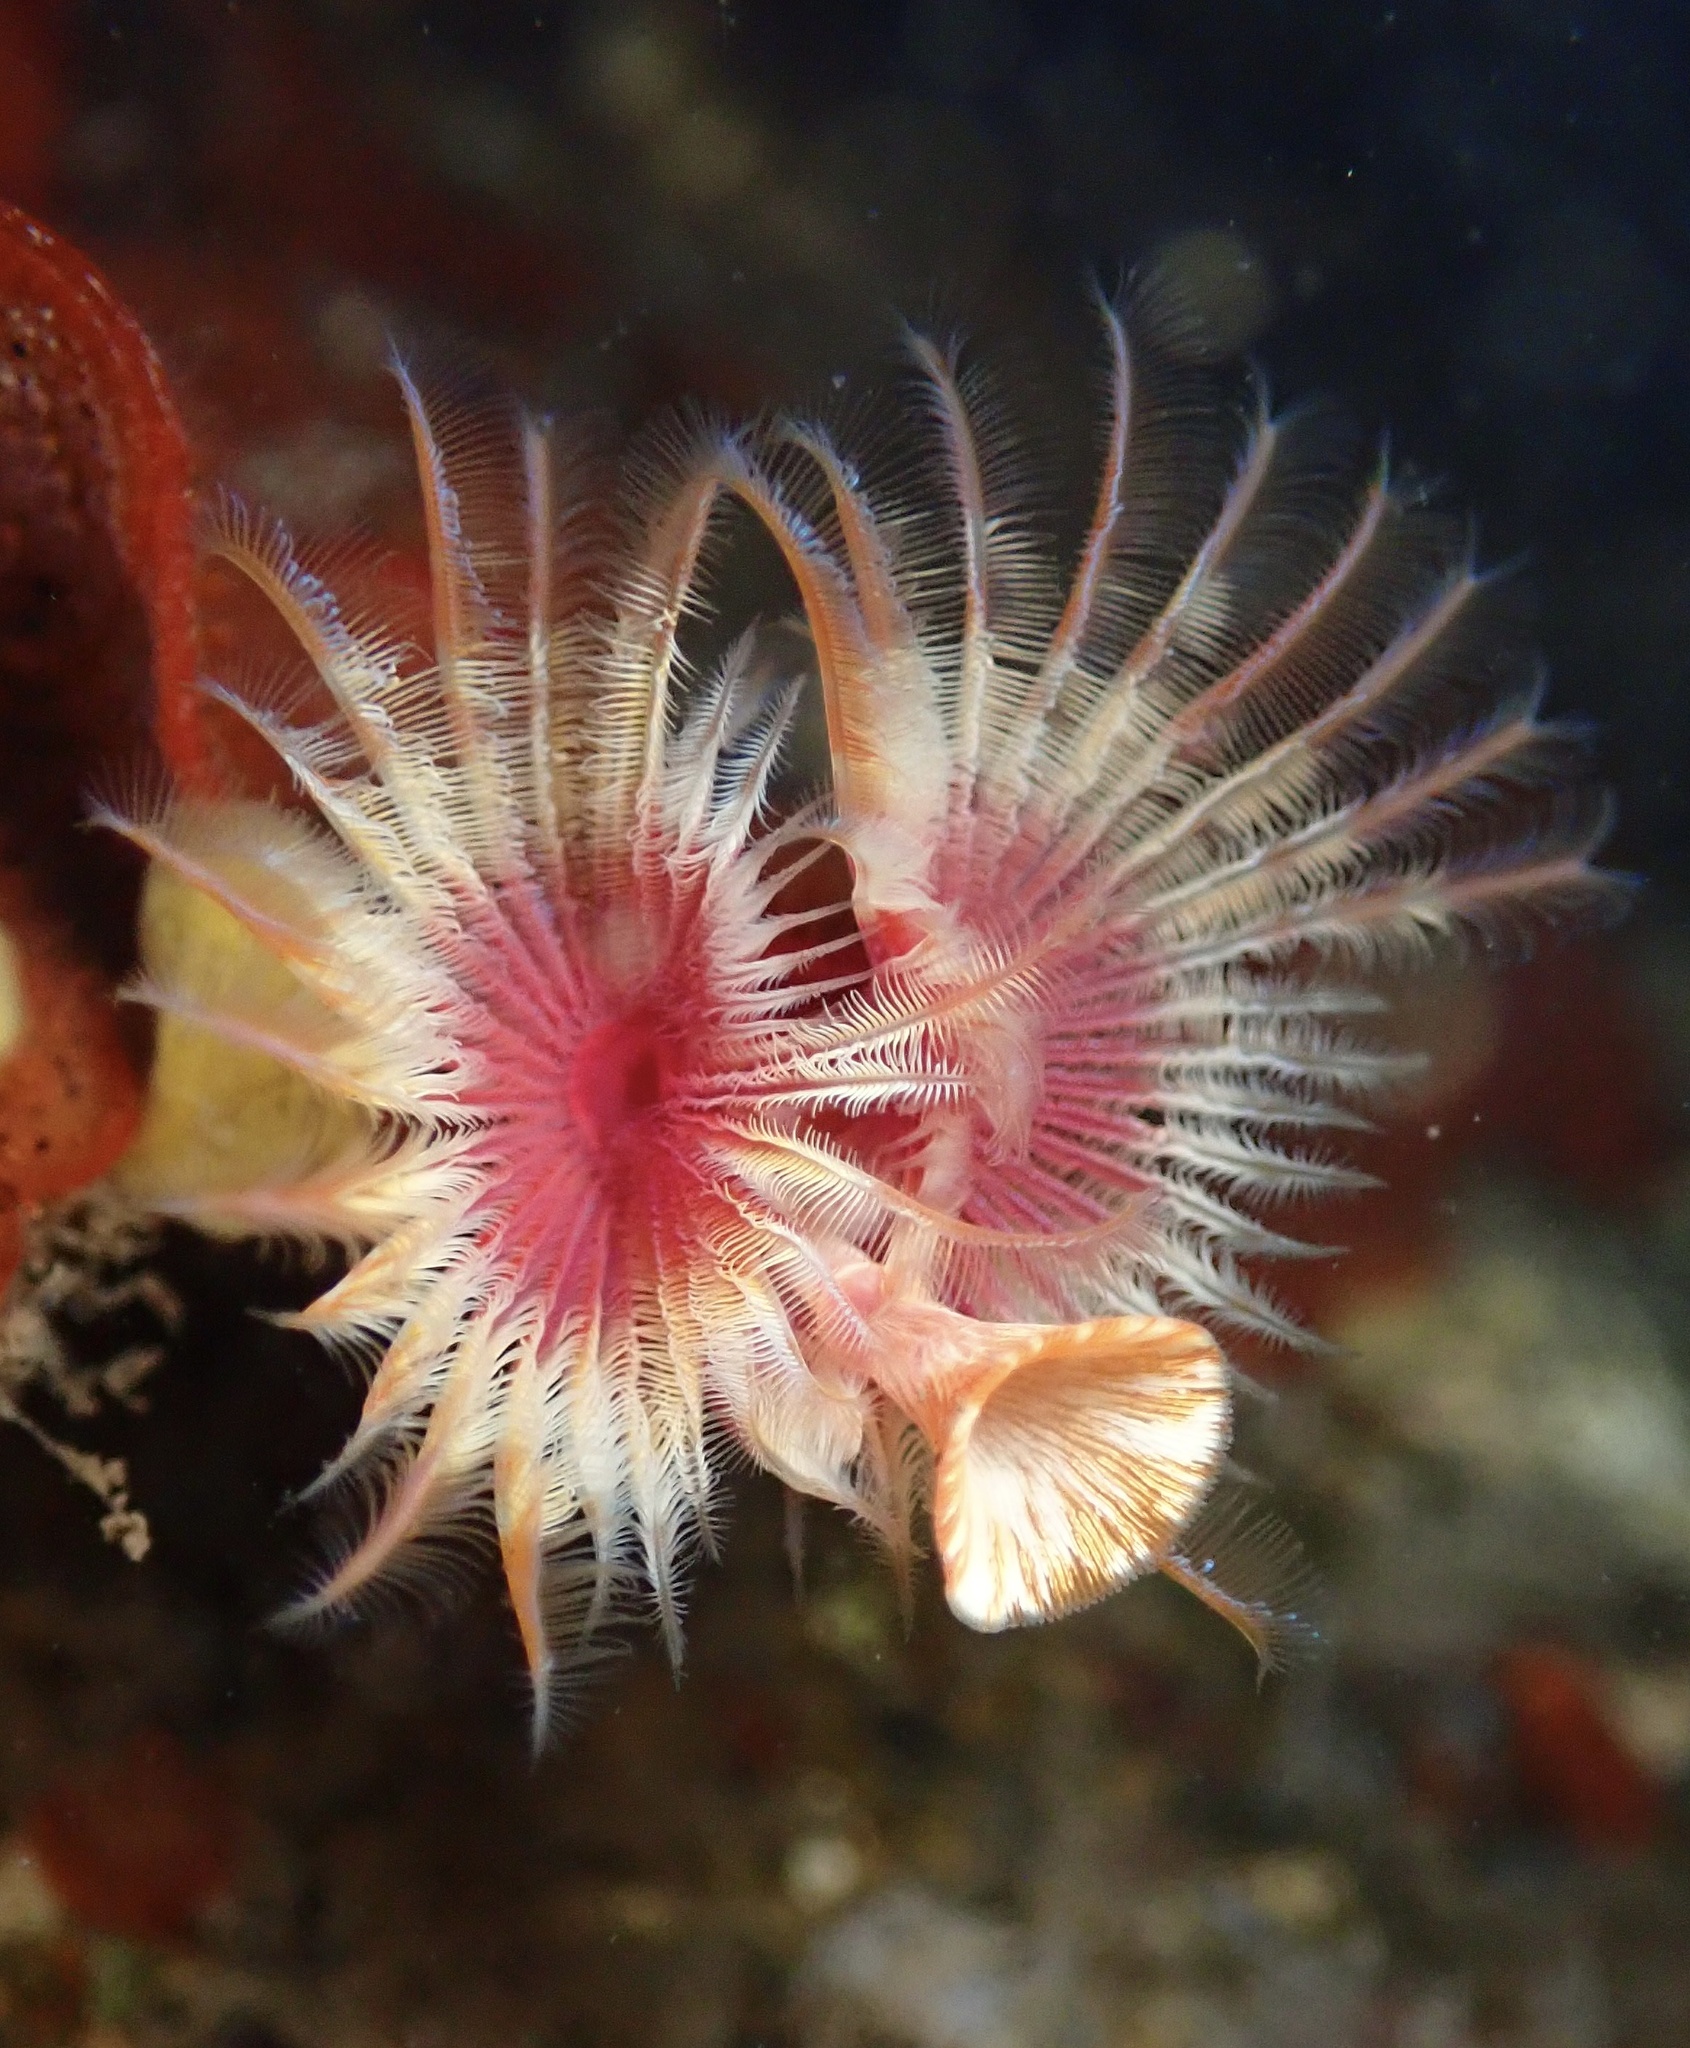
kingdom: Animalia
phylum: Annelida
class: Polychaeta
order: Sabellida
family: Serpulidae
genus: Serpula
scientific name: Serpula columbiana
